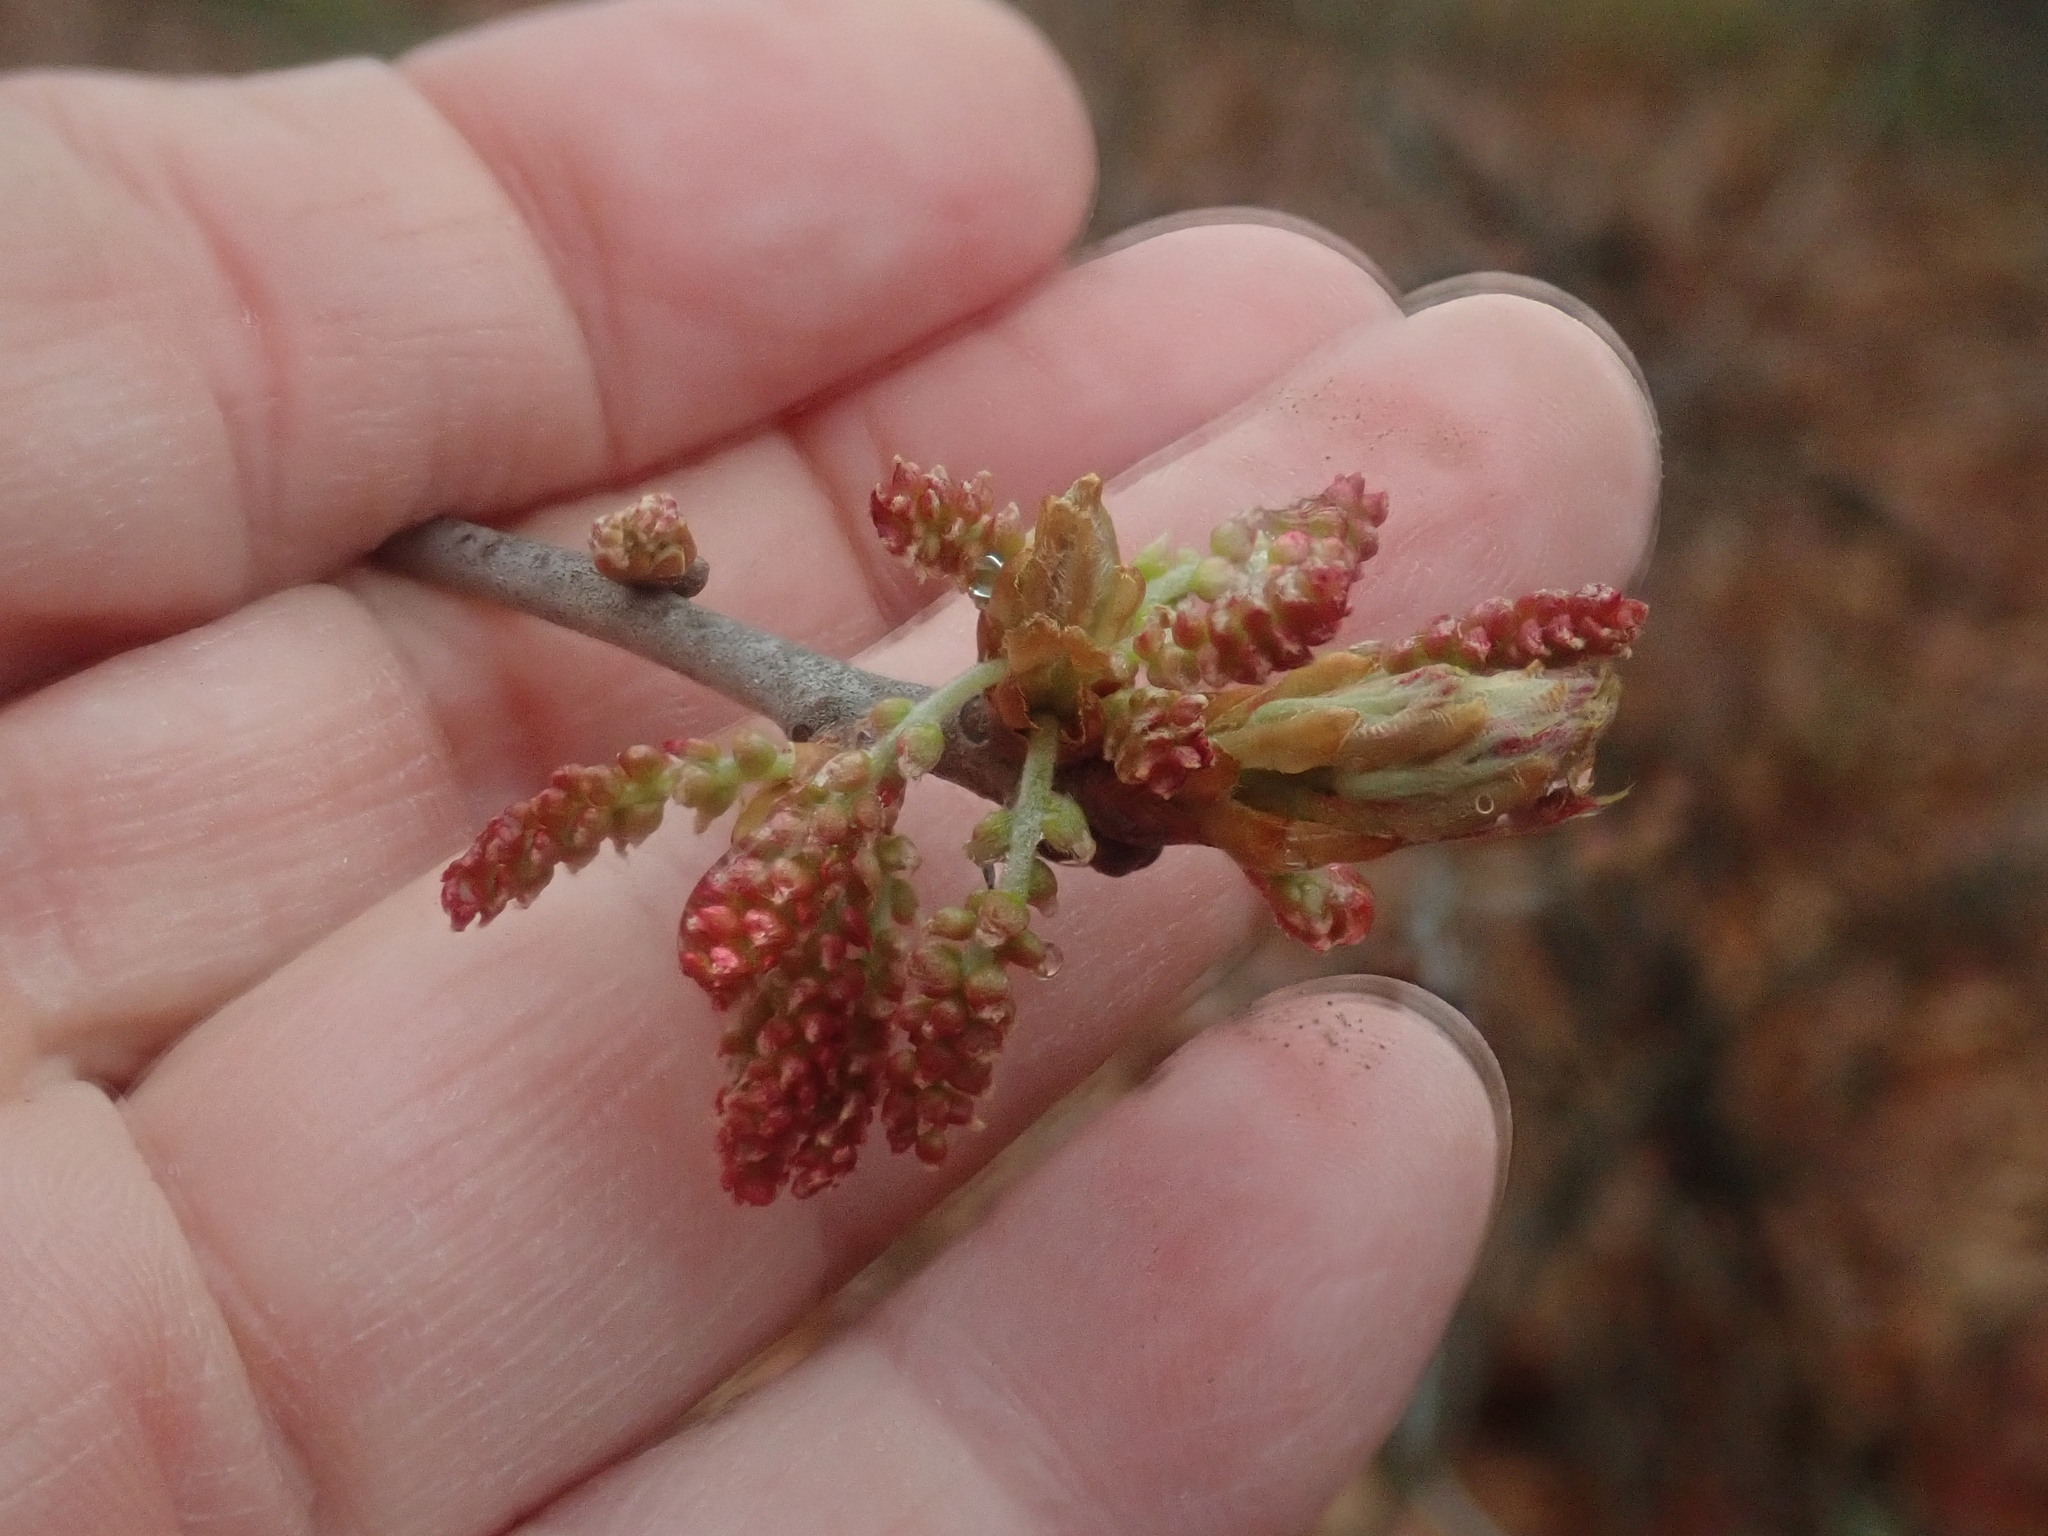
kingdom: Plantae
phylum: Tracheophyta
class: Magnoliopsida
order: Fagales
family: Fagaceae
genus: Quercus
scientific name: Quercus ilicifolia
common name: Bear oak
